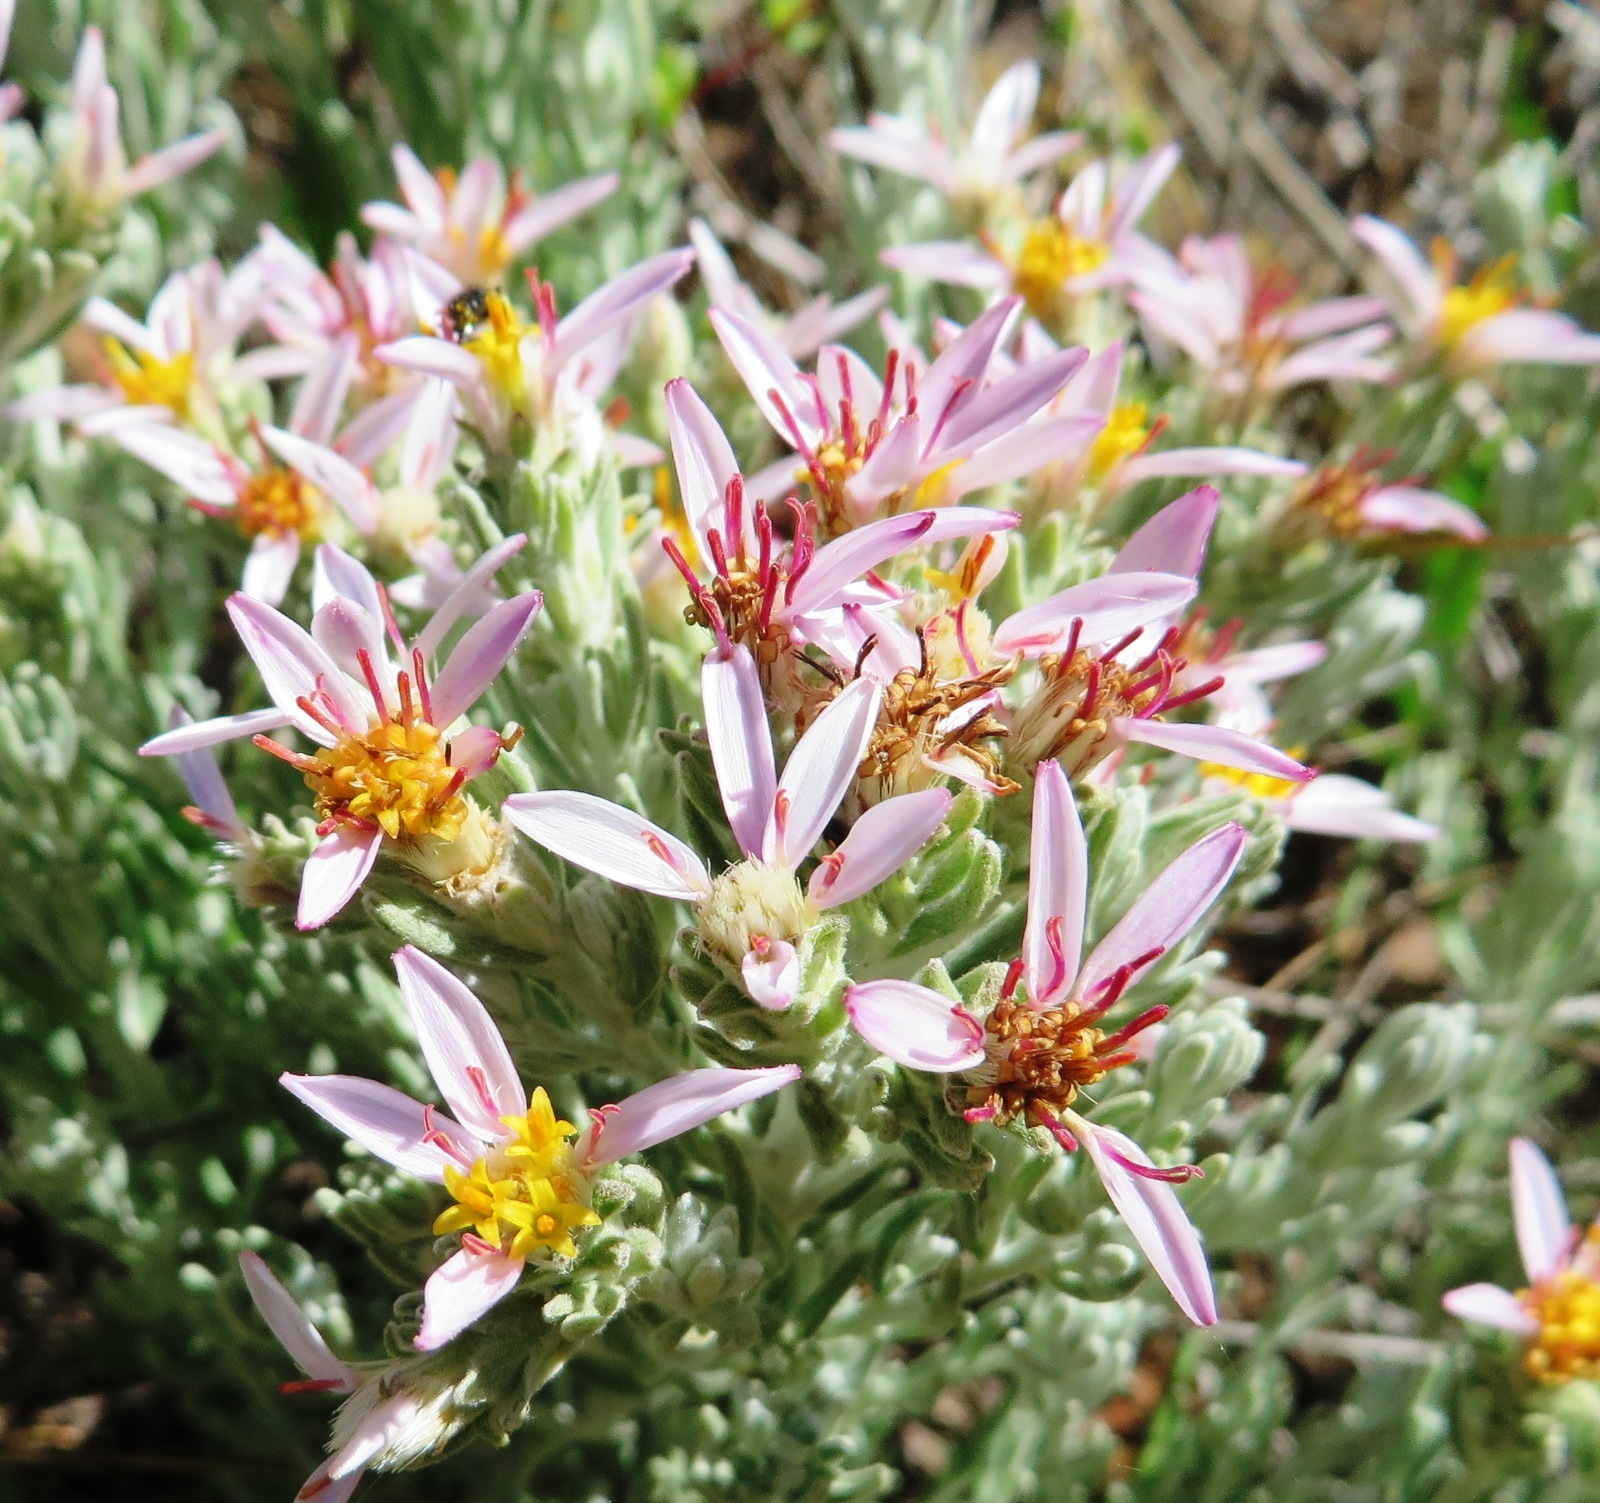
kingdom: Plantae
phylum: Tracheophyta
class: Magnoliopsida
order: Asterales
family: Asteraceae
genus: Printzia
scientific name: Printzia aromatica
